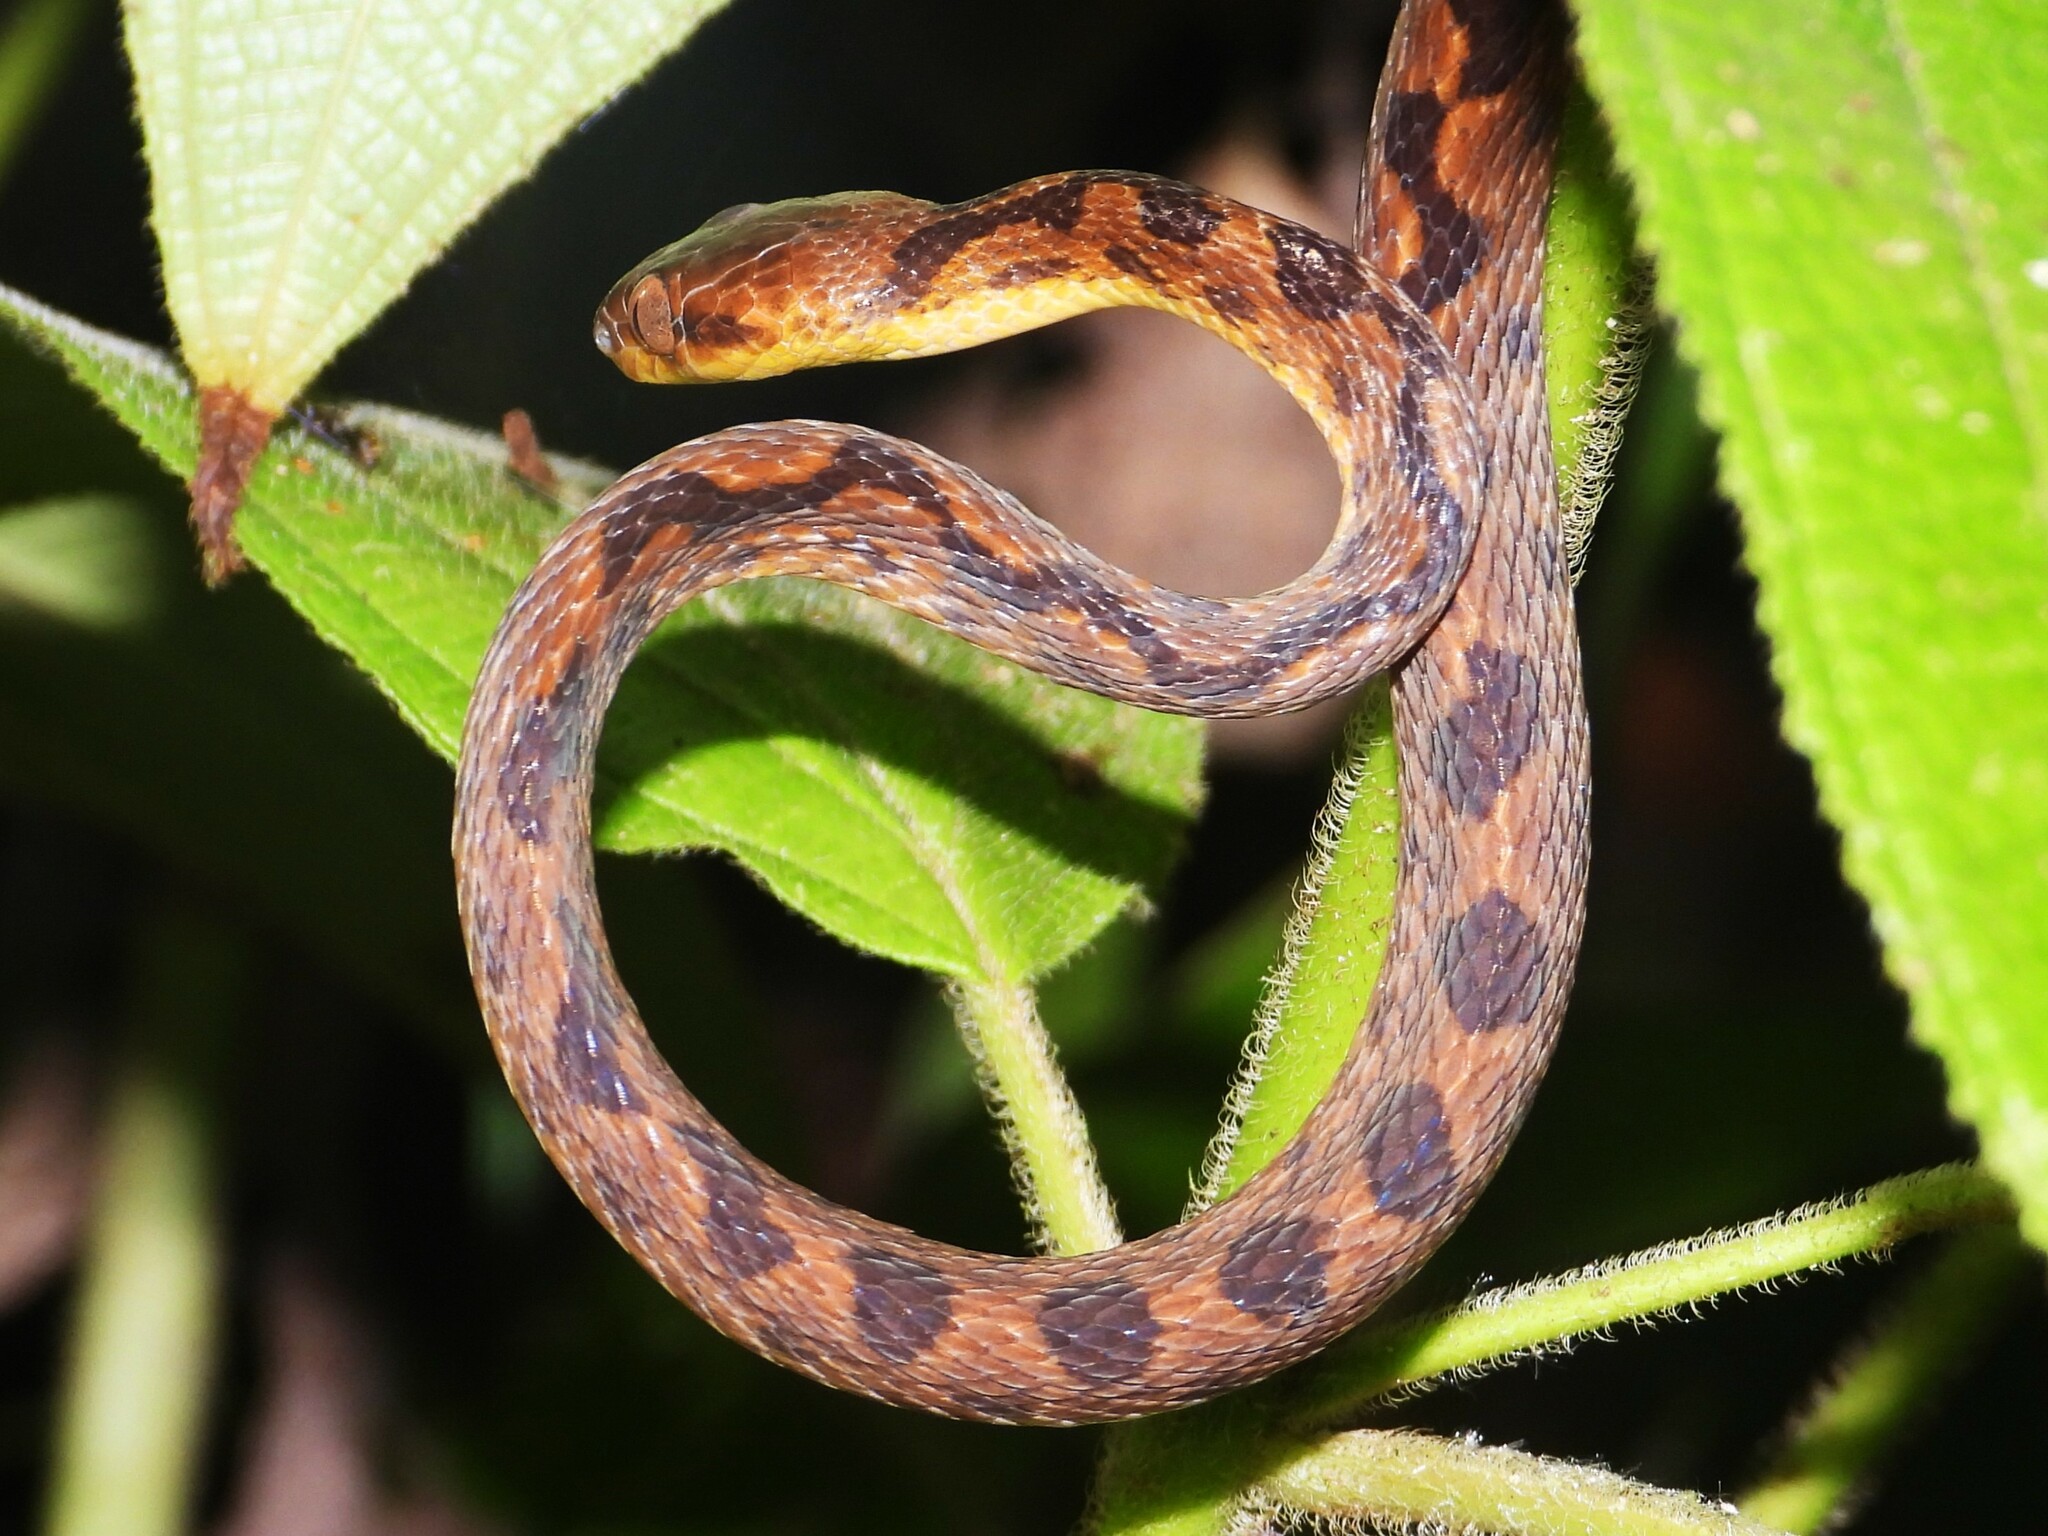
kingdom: Animalia
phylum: Chordata
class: Squamata
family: Colubridae
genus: Leptodeira
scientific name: Leptodeira ornata
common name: Northern cat-eyed snake
